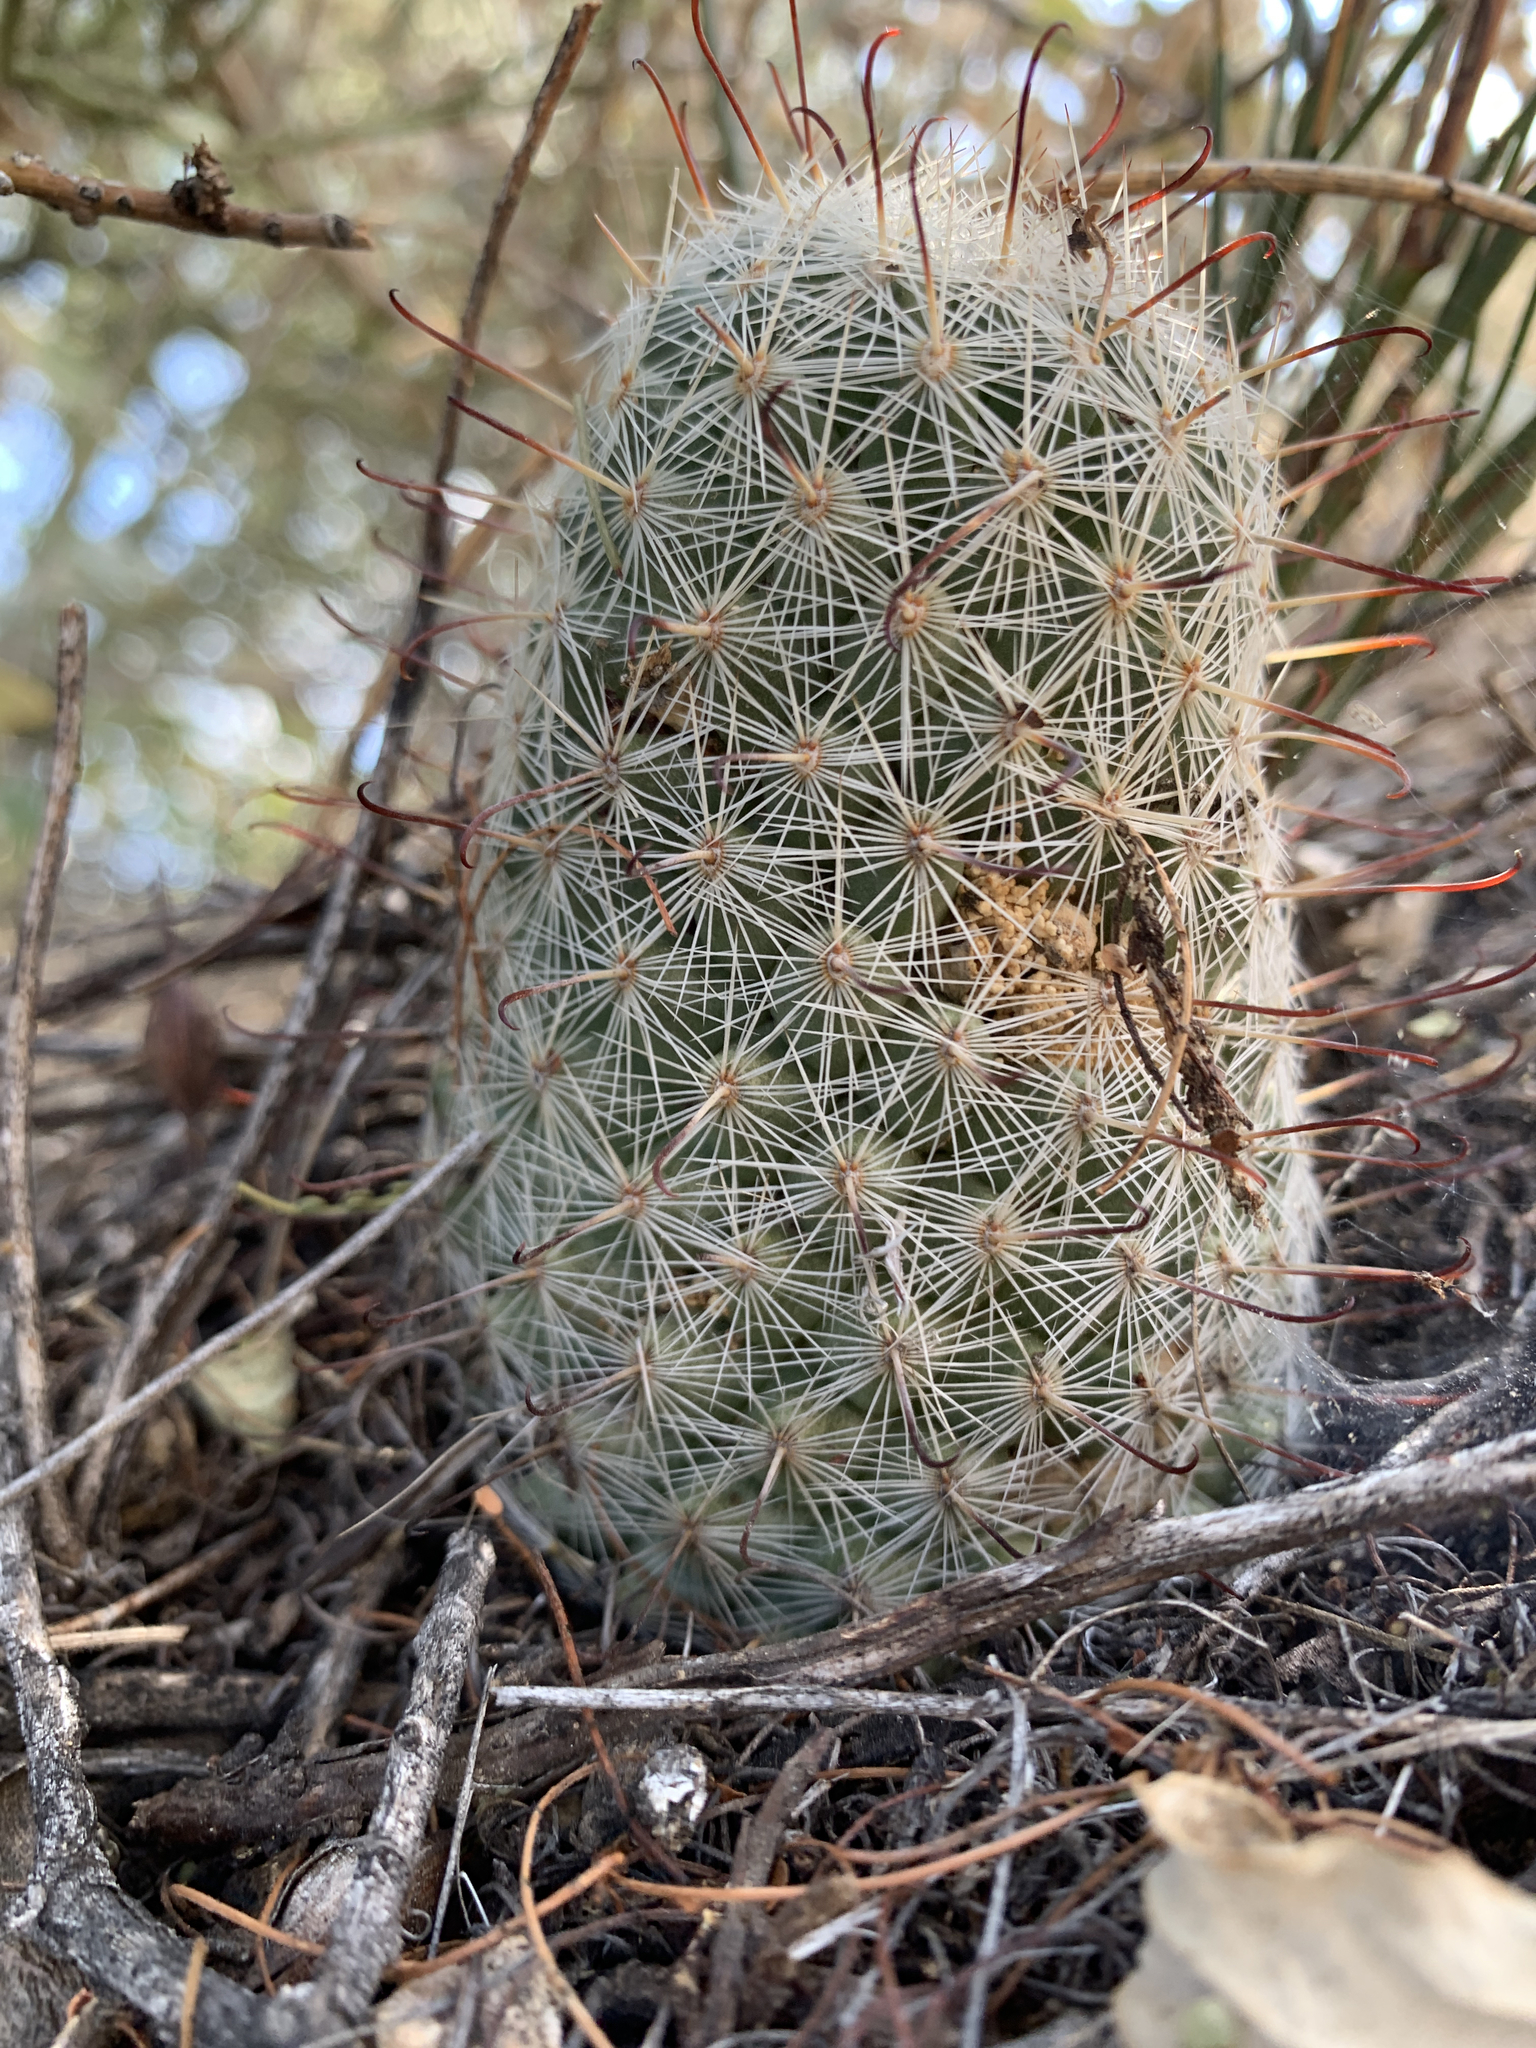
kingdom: Plantae
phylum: Tracheophyta
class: Magnoliopsida
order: Caryophyllales
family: Cactaceae
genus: Cochemiea
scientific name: Cochemiea grahamii
